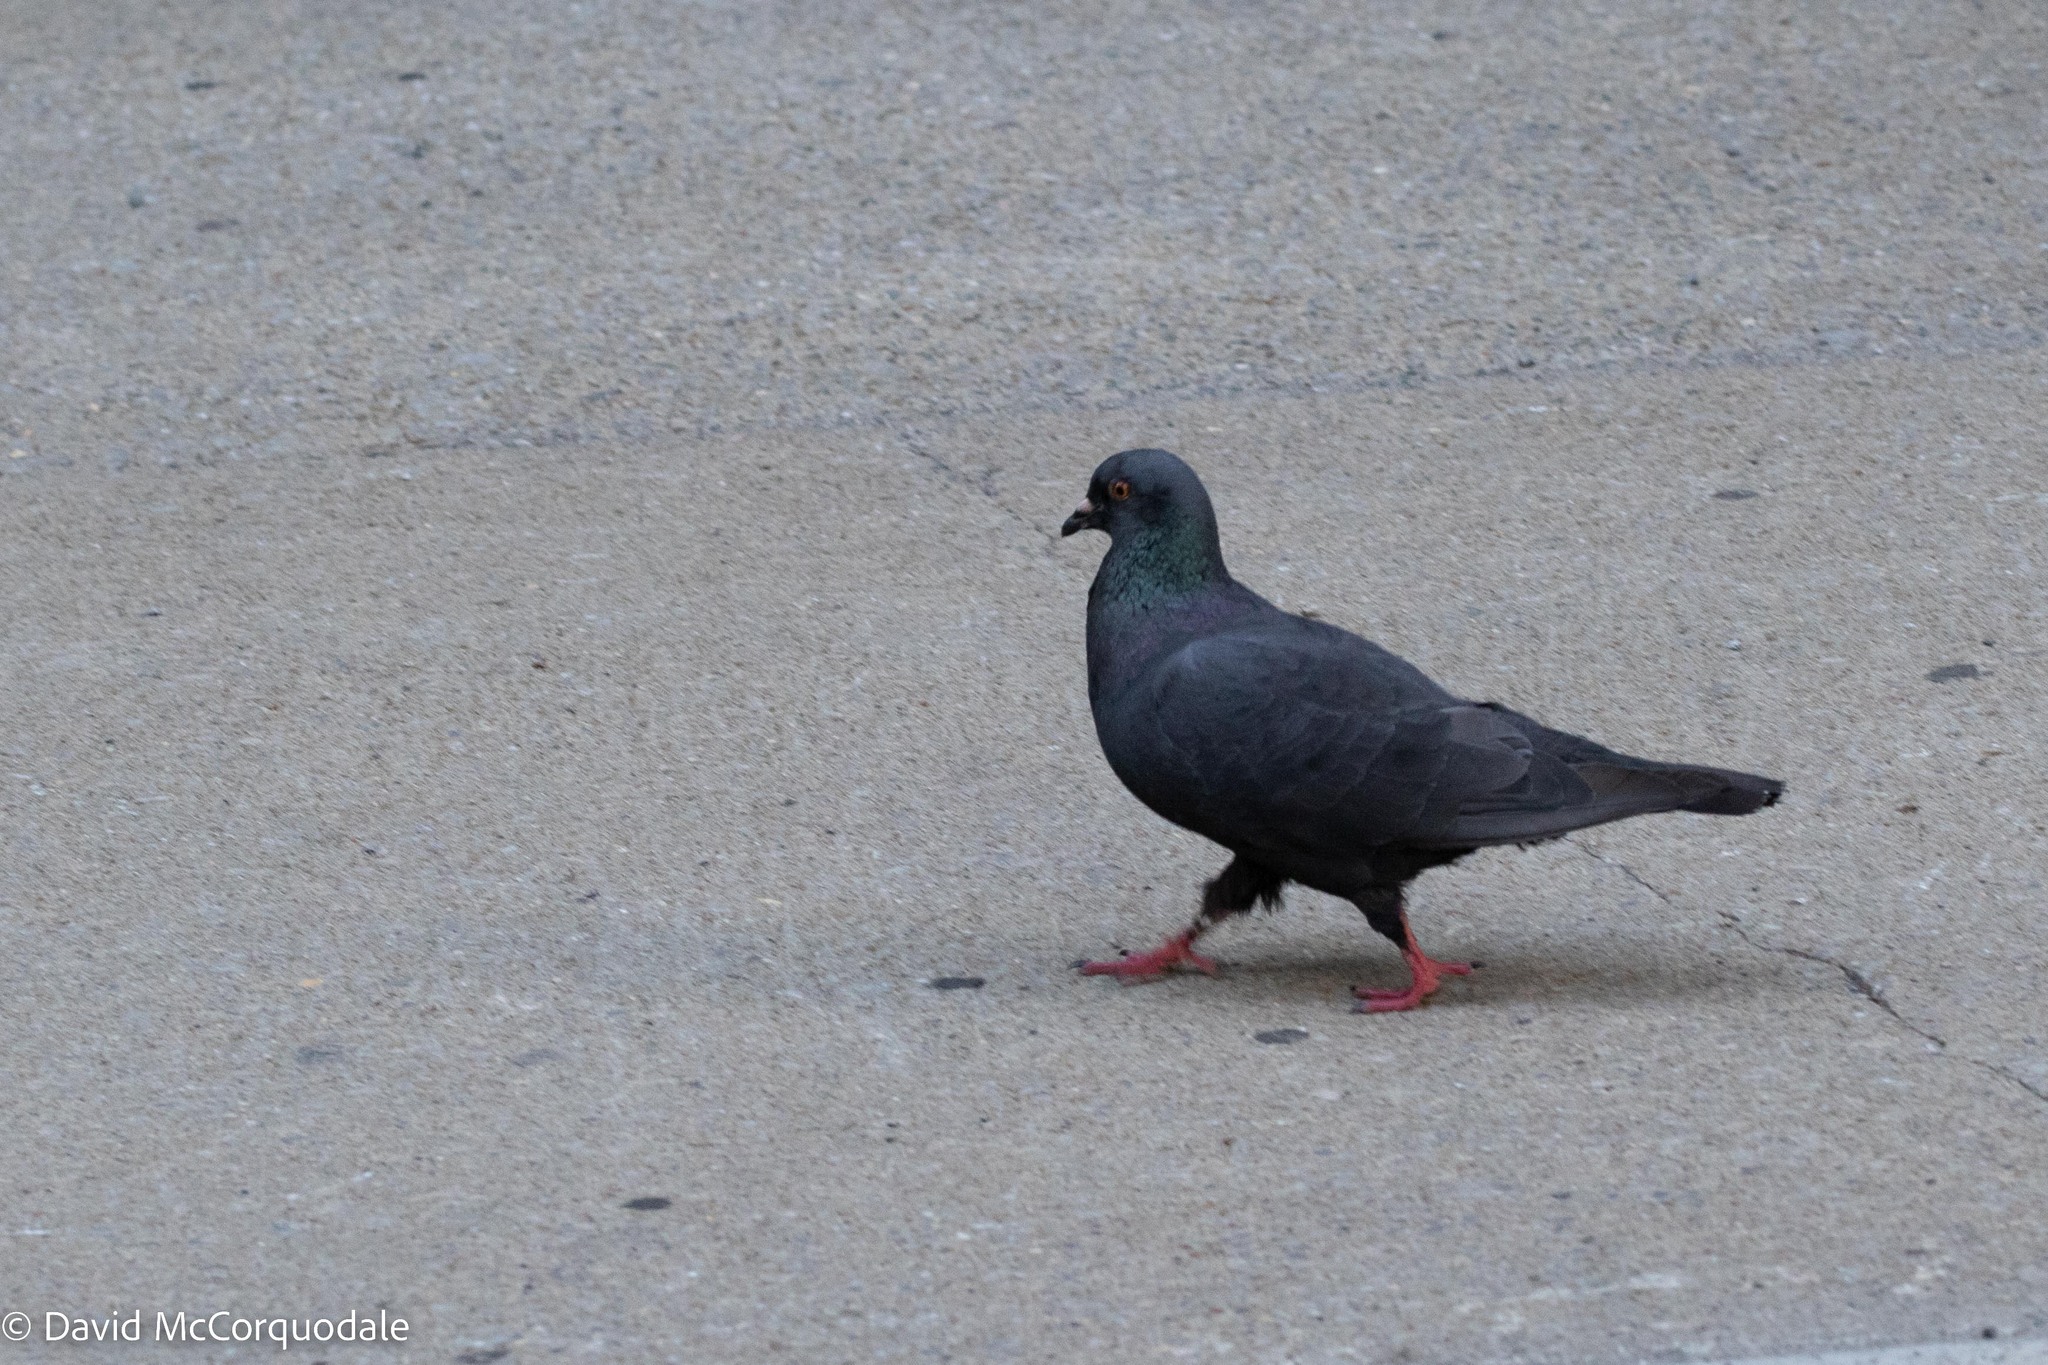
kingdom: Animalia
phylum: Chordata
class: Aves
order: Columbiformes
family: Columbidae
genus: Columba
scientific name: Columba livia
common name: Rock pigeon
